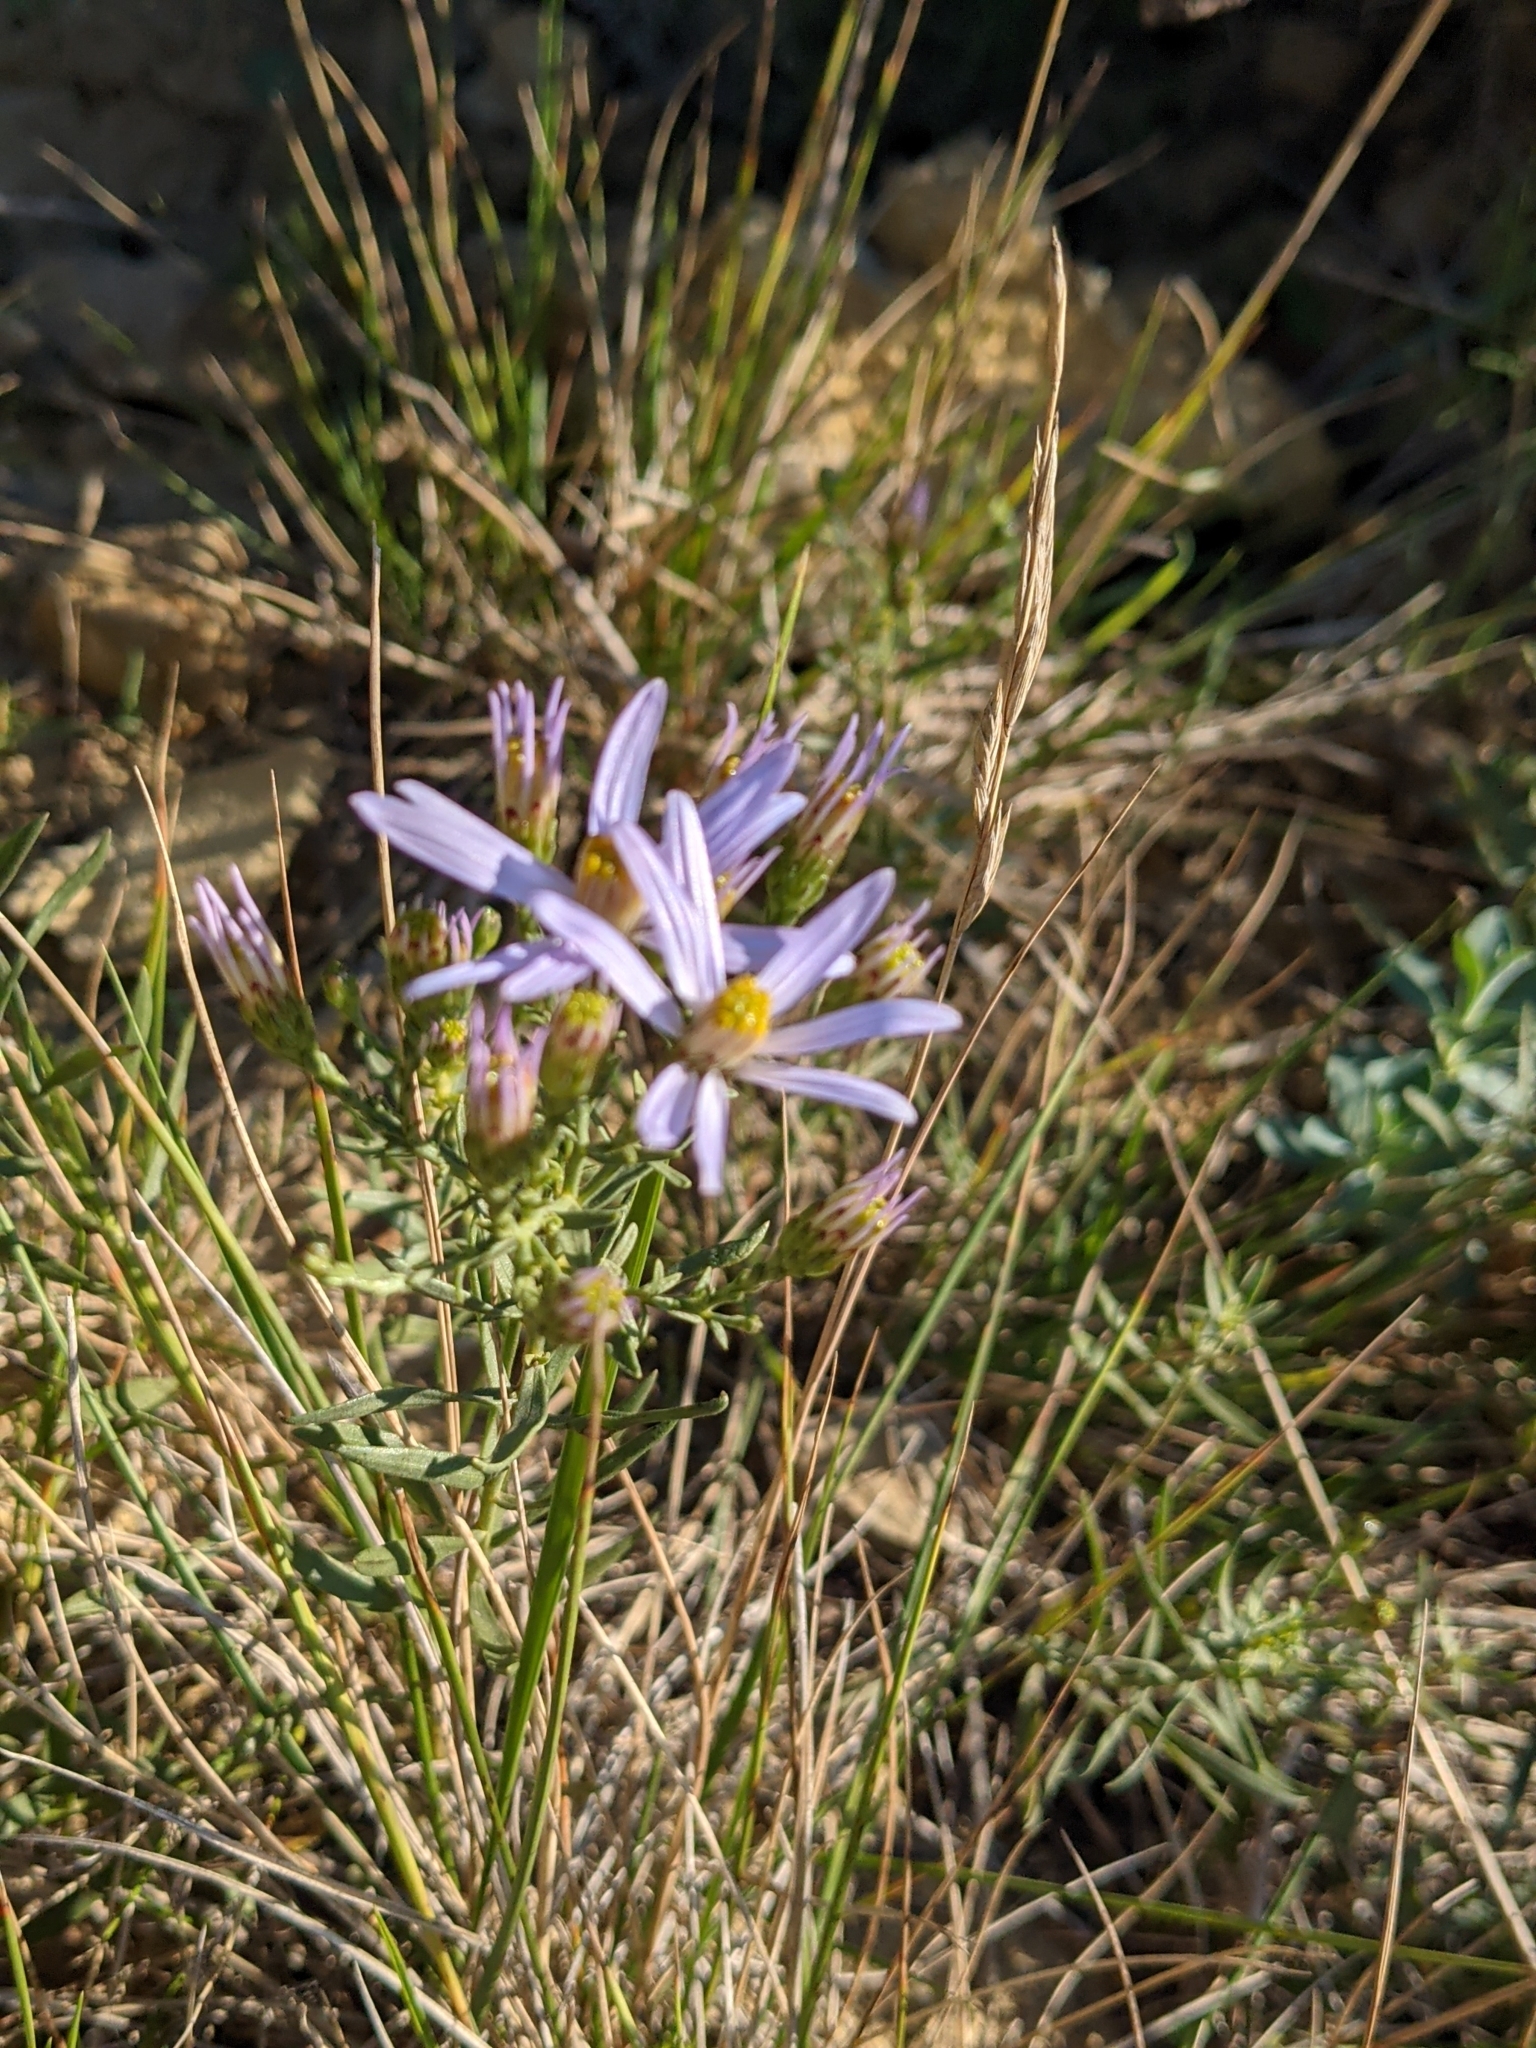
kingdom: Plantae
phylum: Tracheophyta
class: Magnoliopsida
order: Asterales
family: Asteraceae
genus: Galatella
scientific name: Galatella sedifolia
